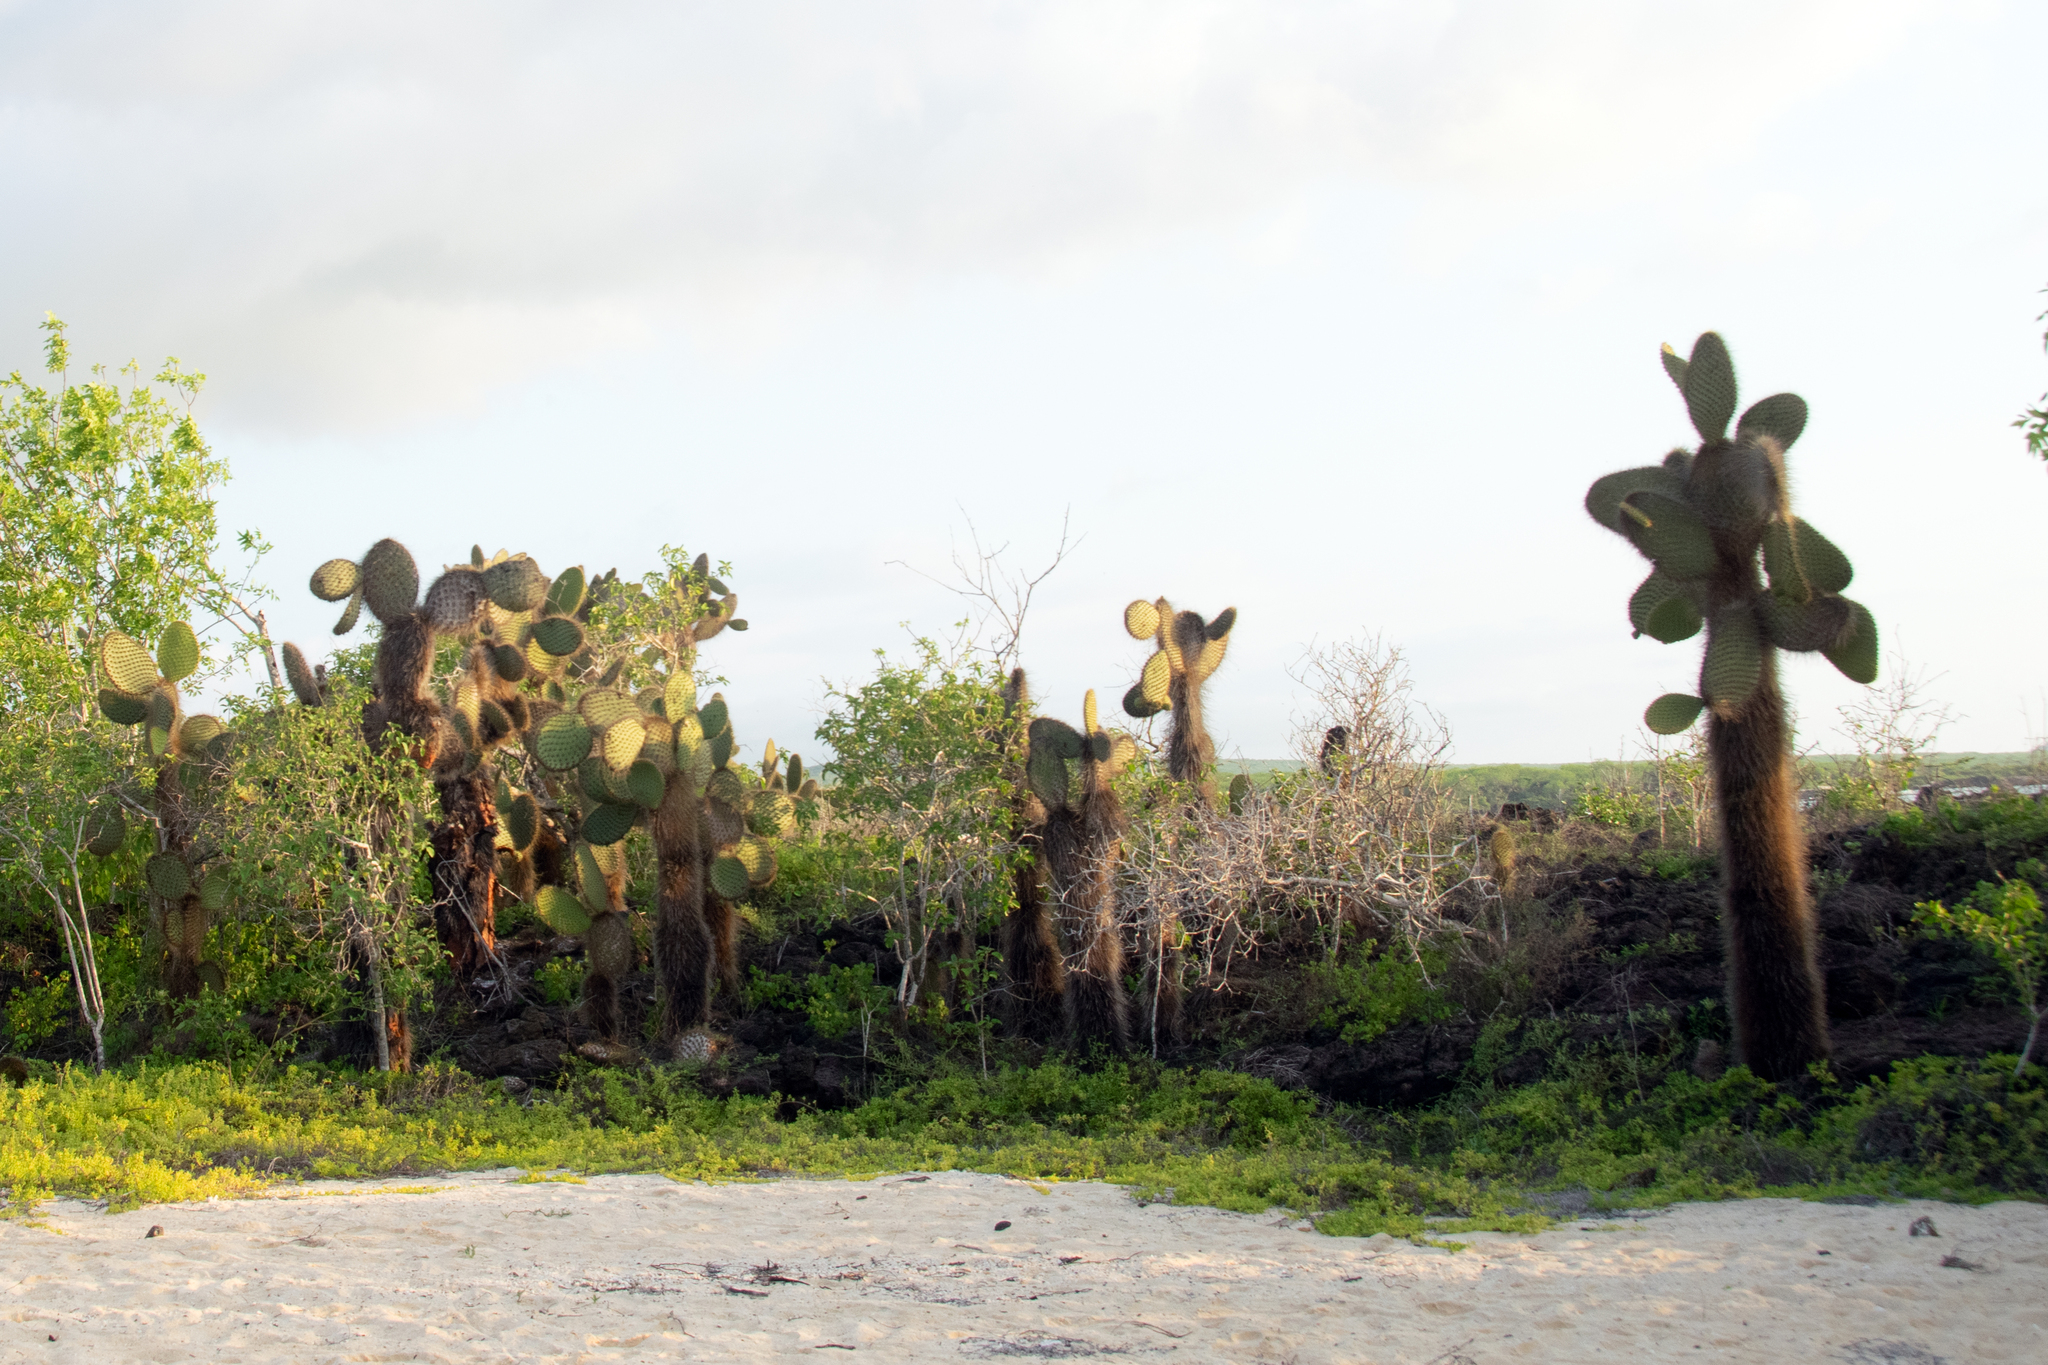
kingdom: Plantae
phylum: Tracheophyta
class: Magnoliopsida
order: Caryophyllales
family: Cactaceae
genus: Opuntia
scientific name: Opuntia galapageia
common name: Galápagos prickly pear
